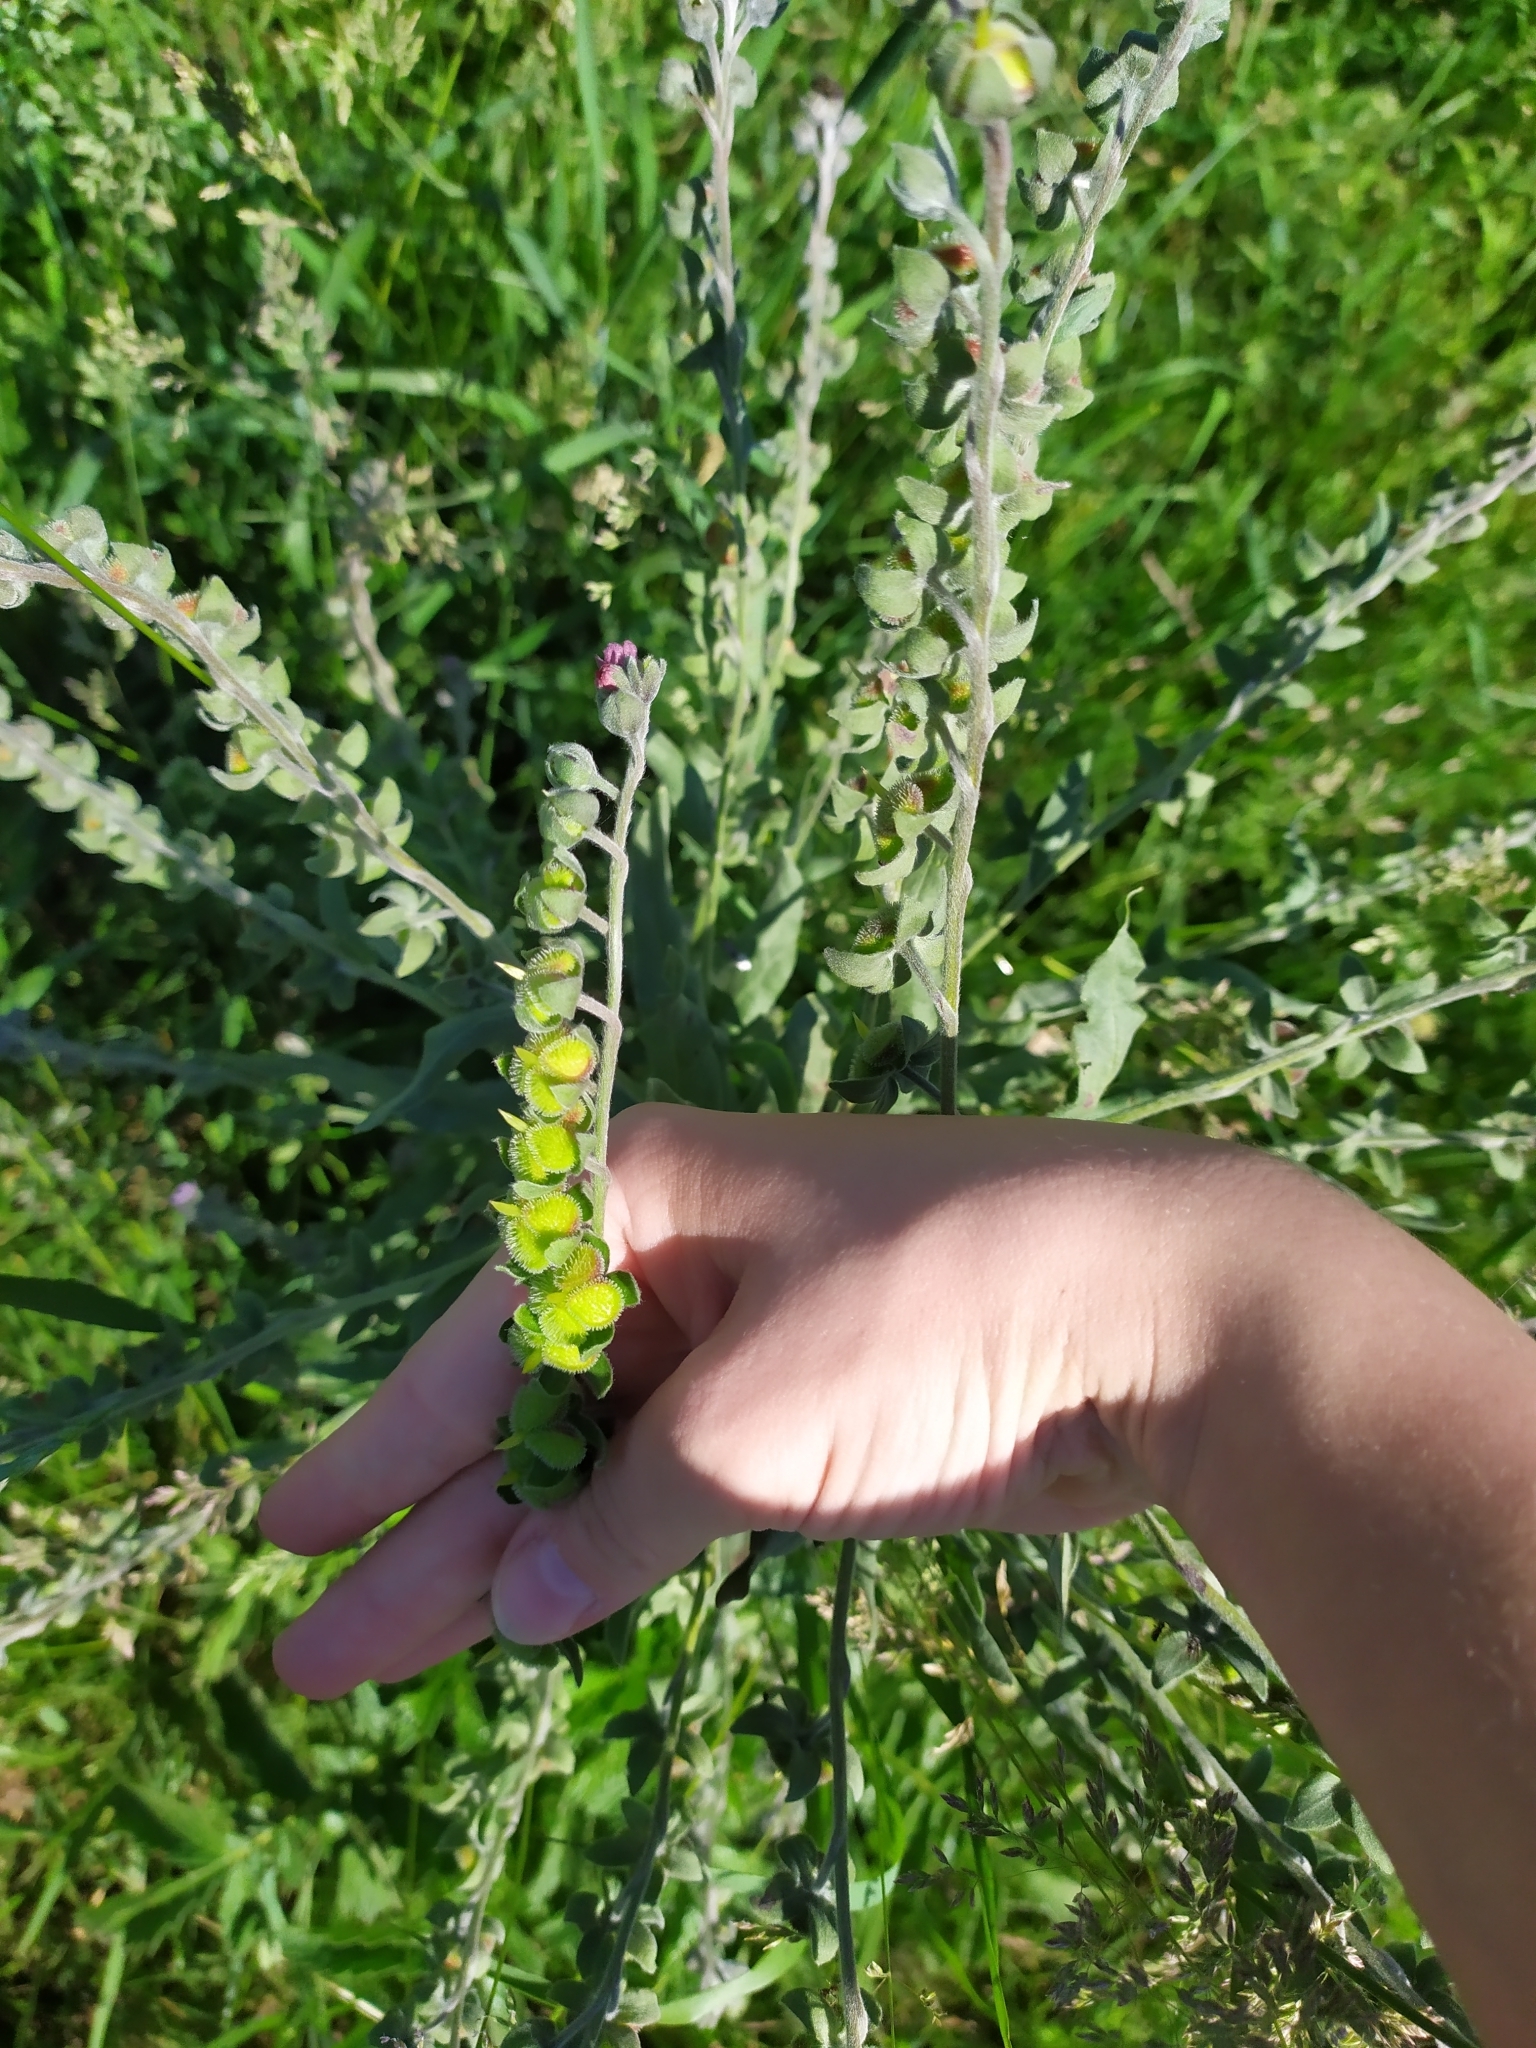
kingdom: Plantae
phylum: Tracheophyta
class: Magnoliopsida
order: Boraginales
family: Boraginaceae
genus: Cynoglossum
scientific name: Cynoglossum officinale
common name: Hound's-tongue
